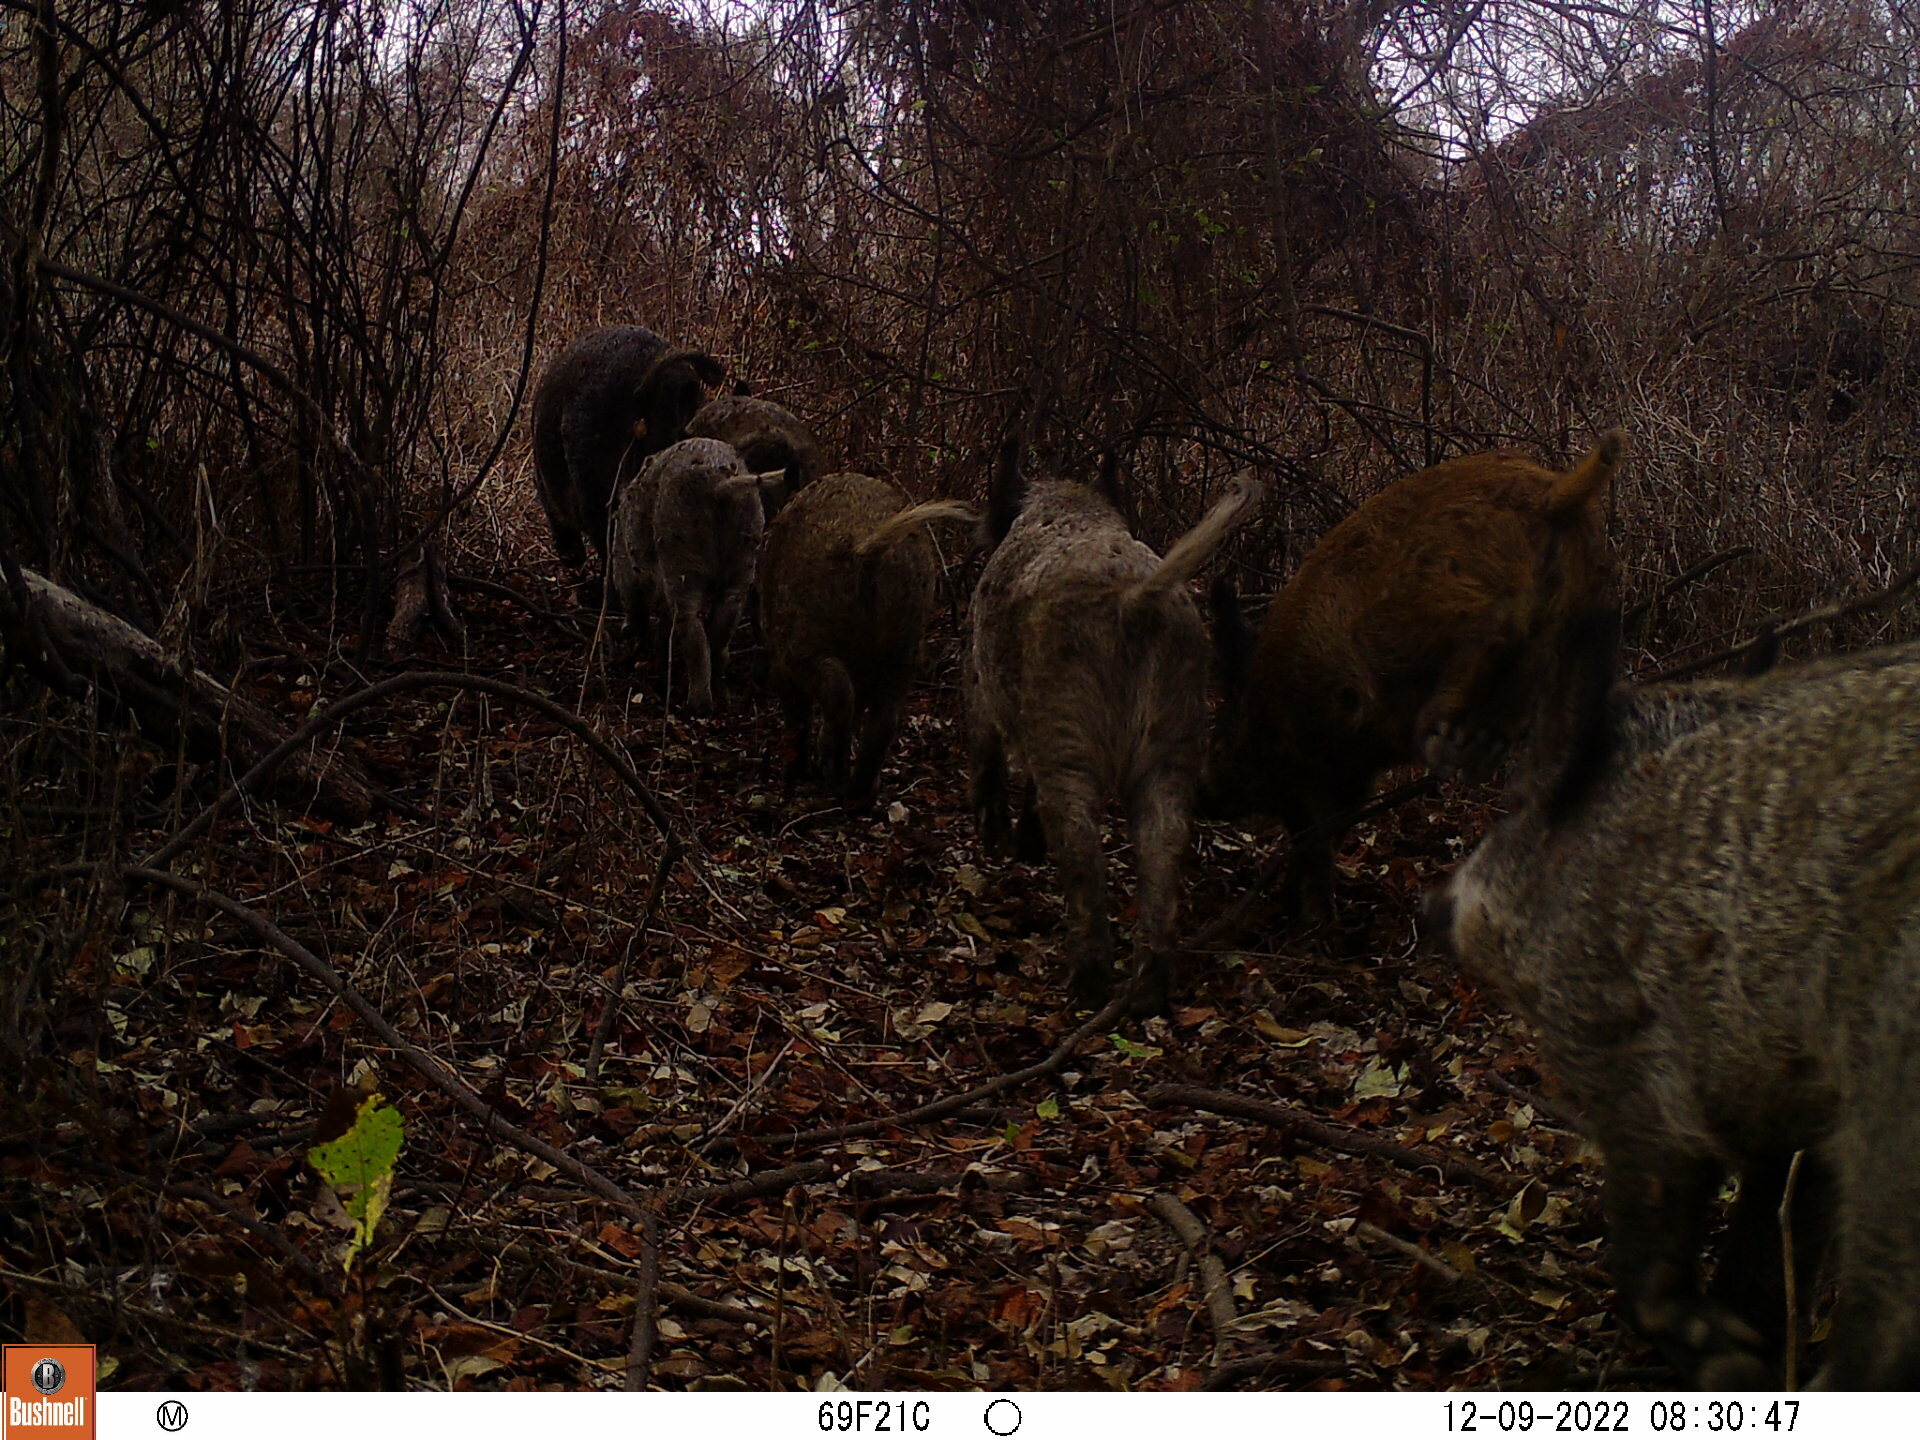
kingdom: Animalia
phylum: Chordata
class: Mammalia
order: Artiodactyla
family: Suidae
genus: Sus
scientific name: Sus scrofa
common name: Wild boar
